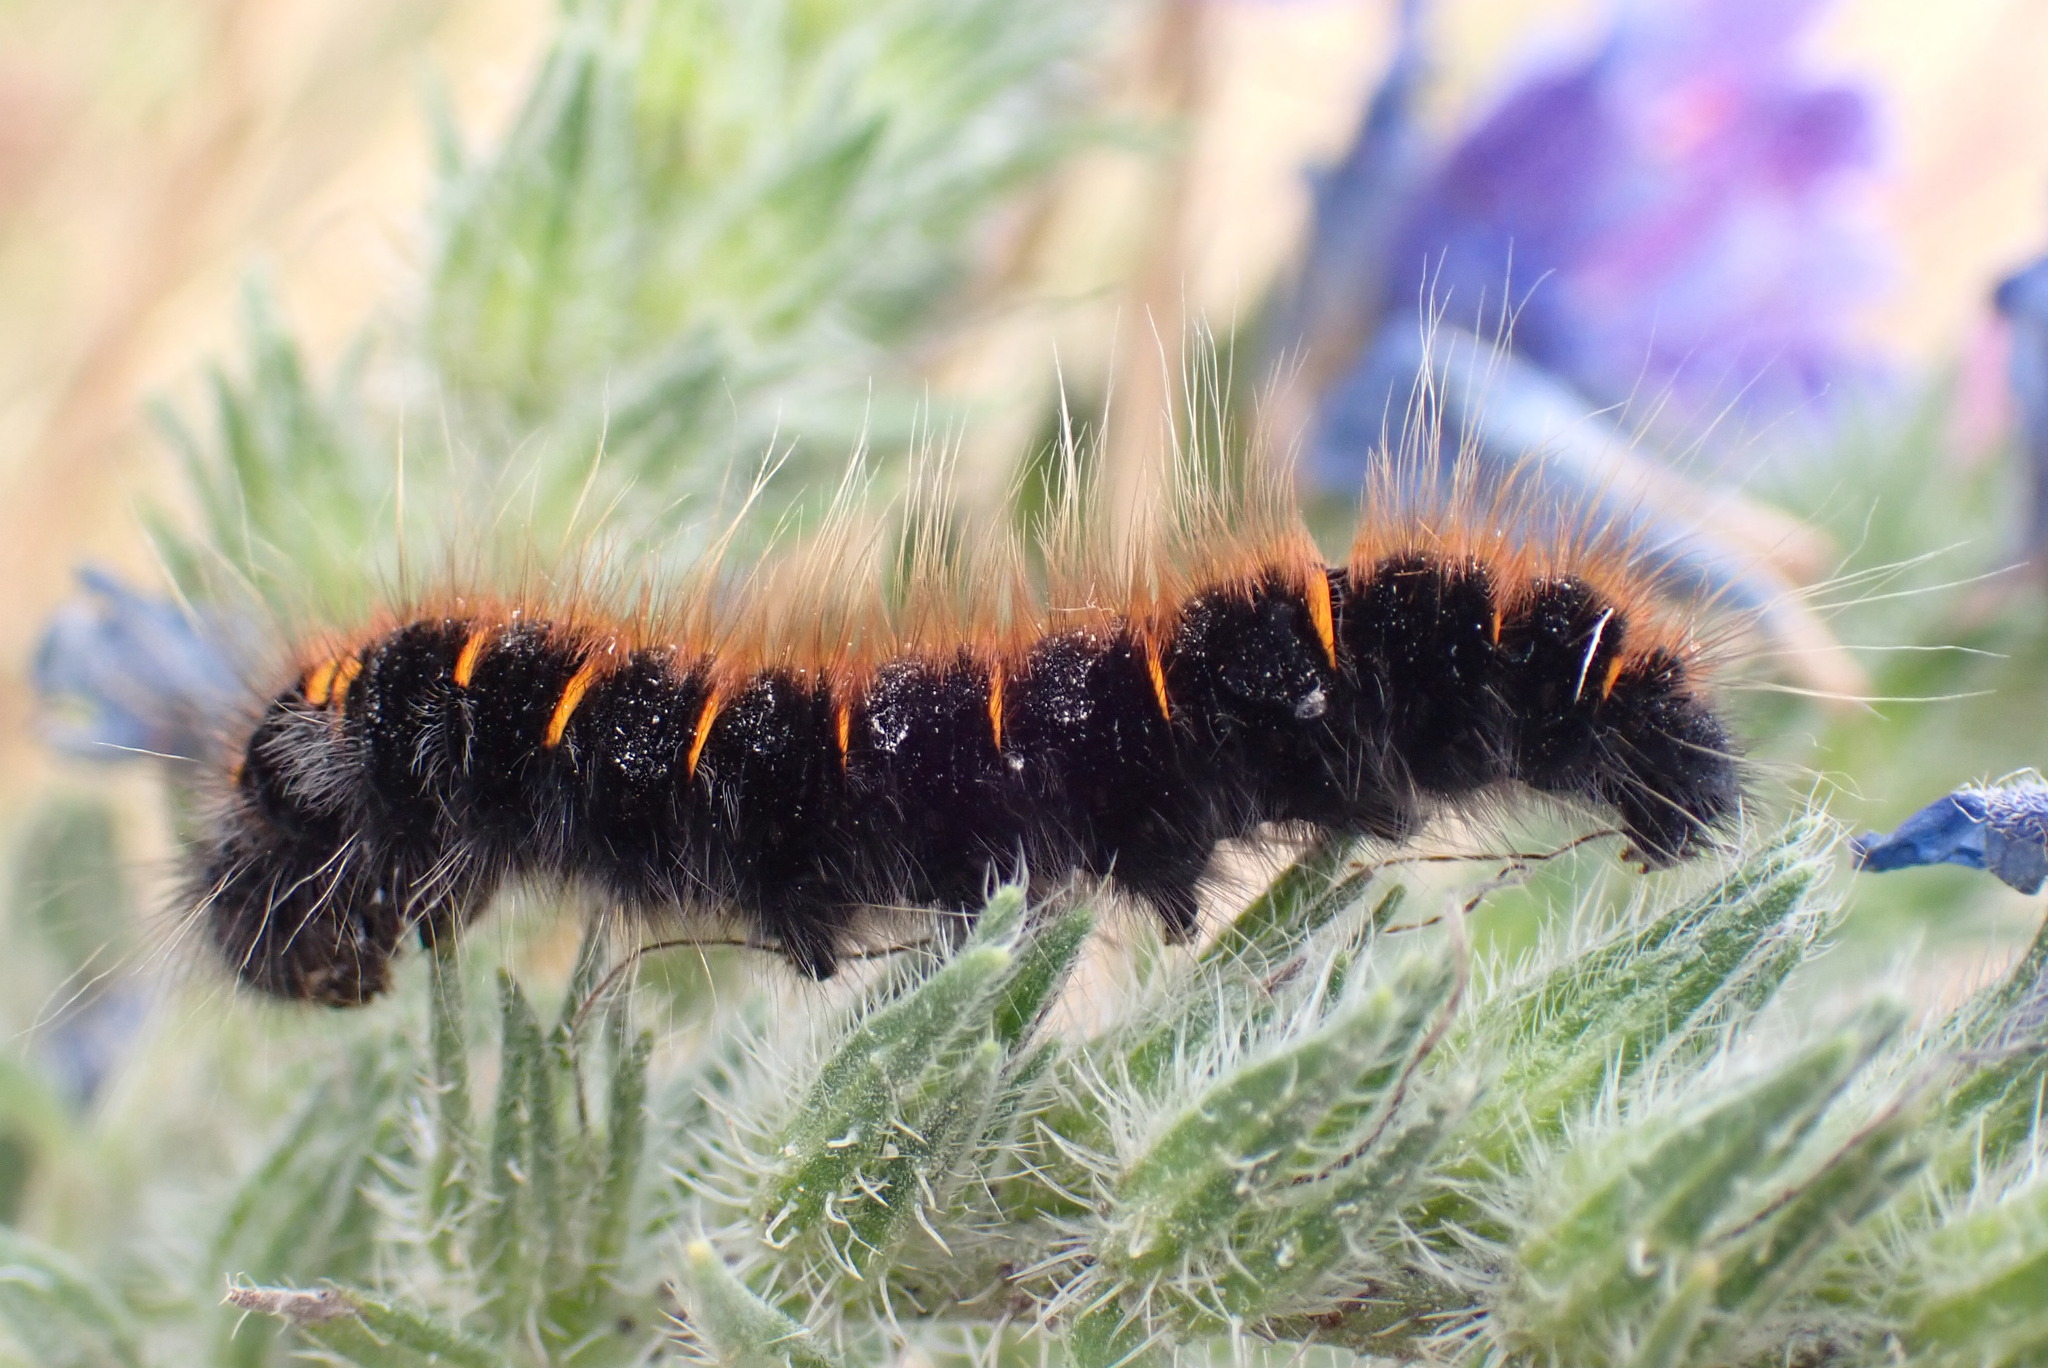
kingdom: Animalia
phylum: Arthropoda
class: Insecta
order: Lepidoptera
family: Lasiocampidae
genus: Macrothylacia
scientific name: Macrothylacia rubi
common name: Fox moth
